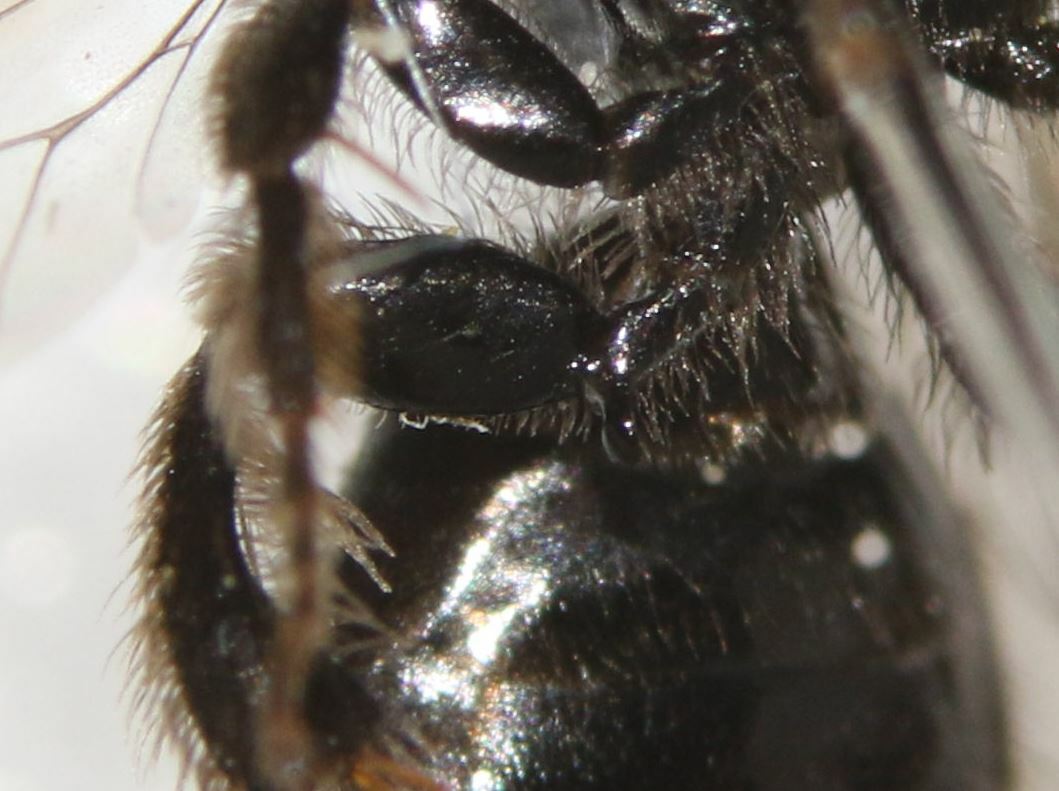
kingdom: Animalia
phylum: Arthropoda
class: Insecta
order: Hymenoptera
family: Andrenidae
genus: Panurgus
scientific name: Panurgus dentipes
